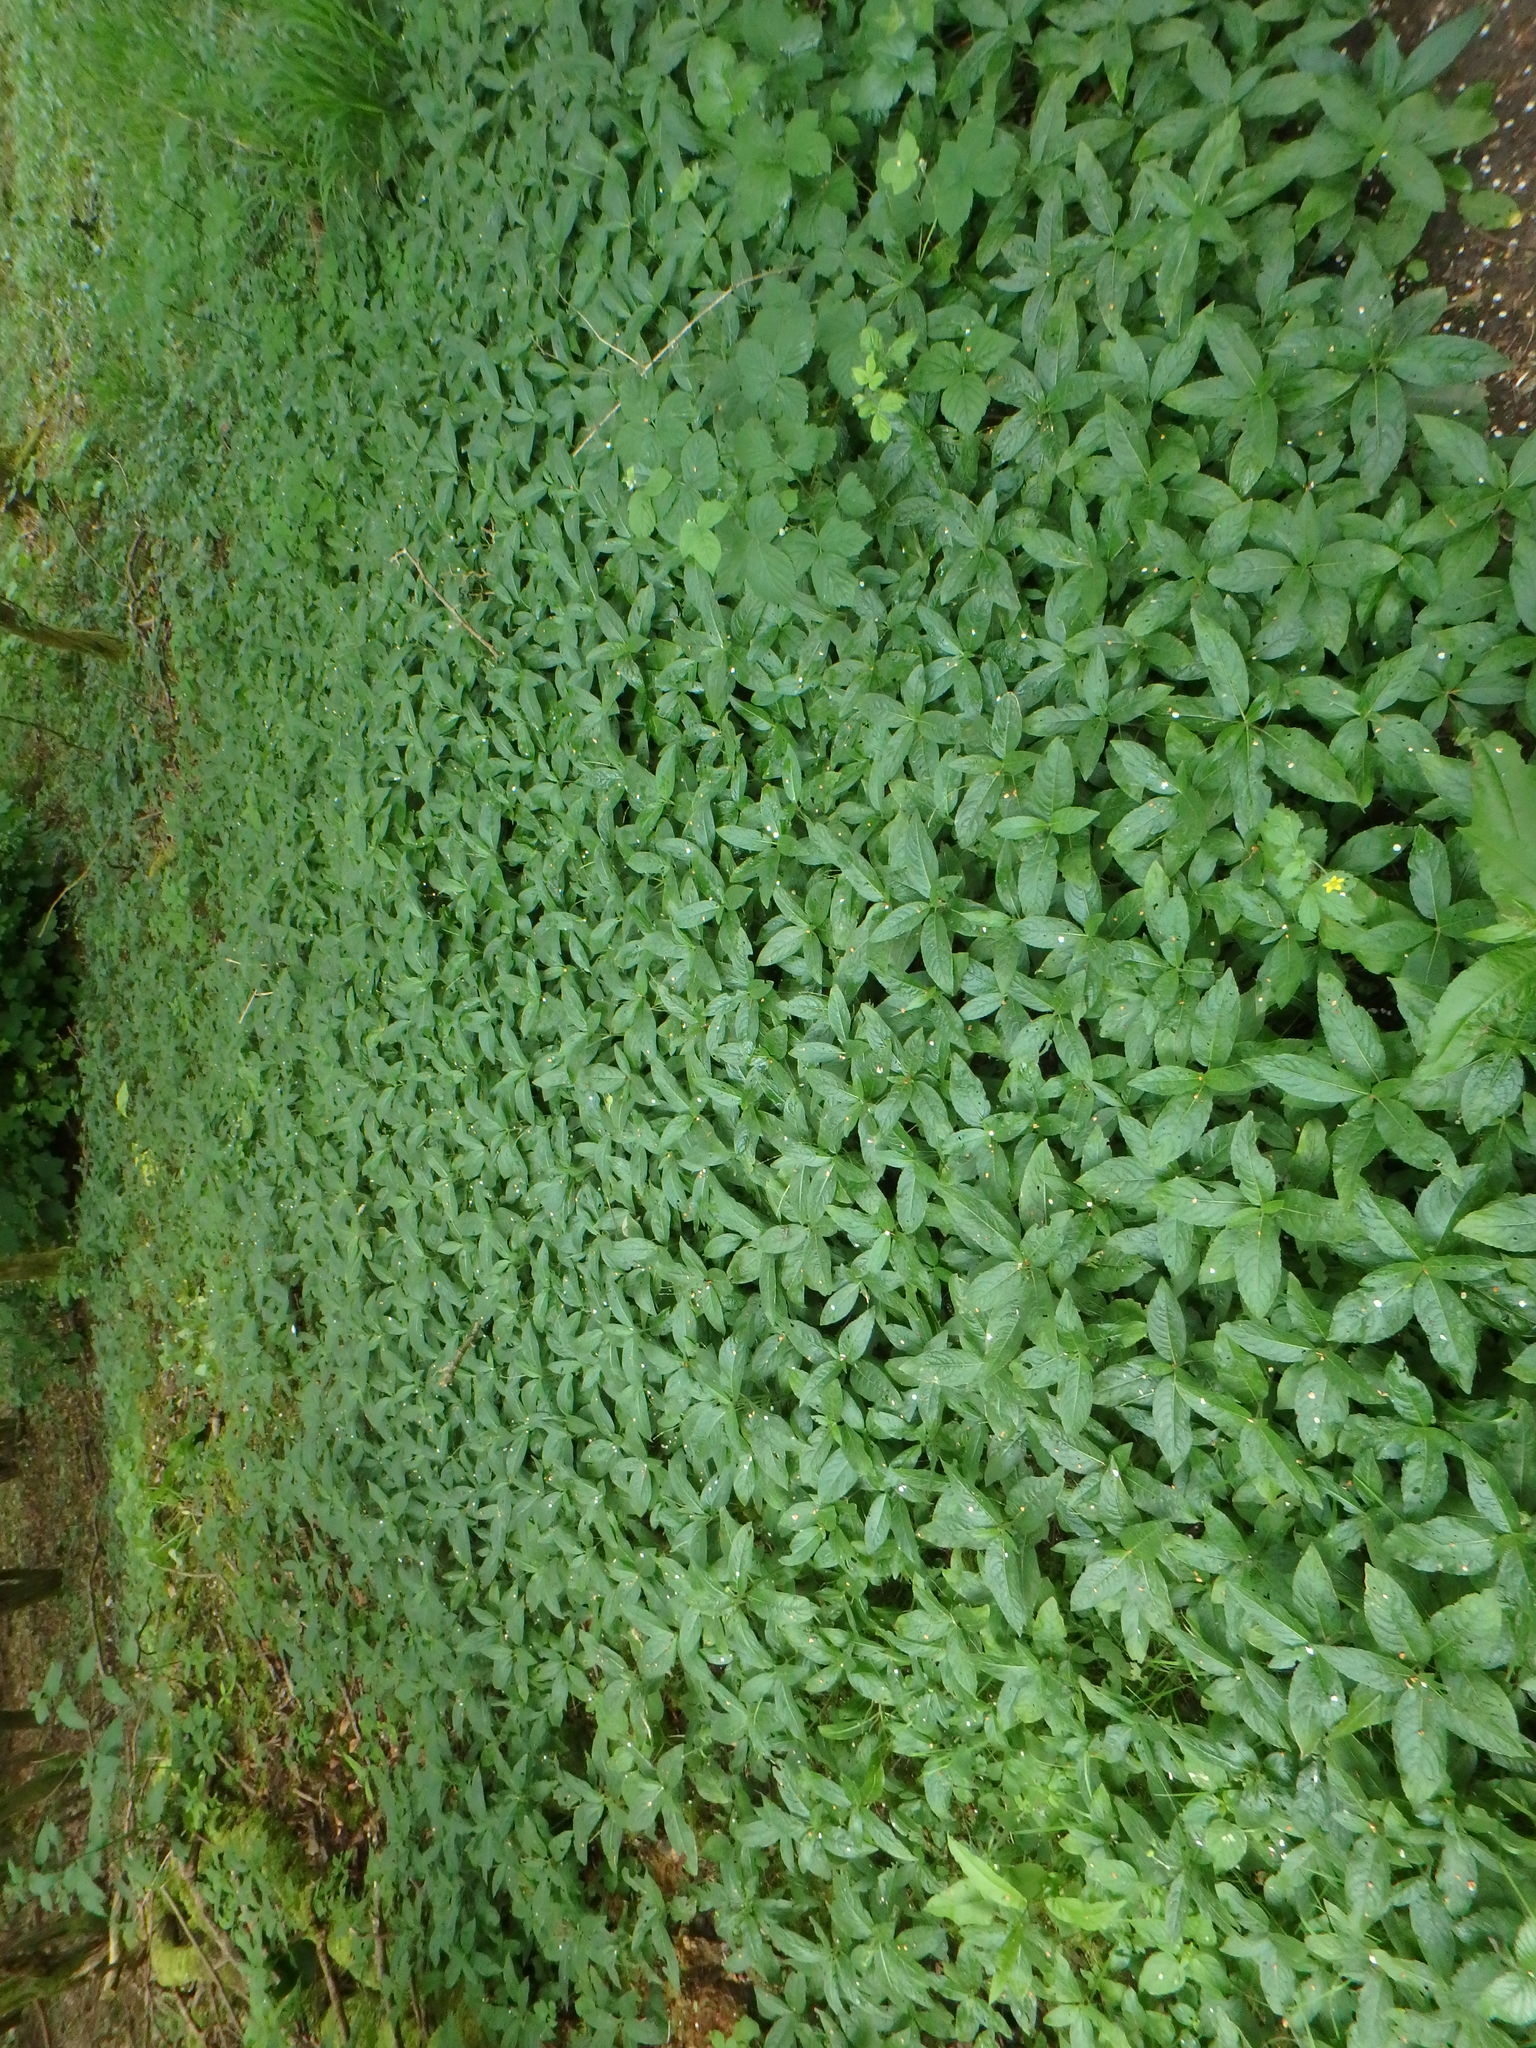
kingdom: Plantae
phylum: Tracheophyta
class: Magnoliopsida
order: Malpighiales
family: Euphorbiaceae
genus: Mercurialis
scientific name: Mercurialis perennis
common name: Dog mercury
